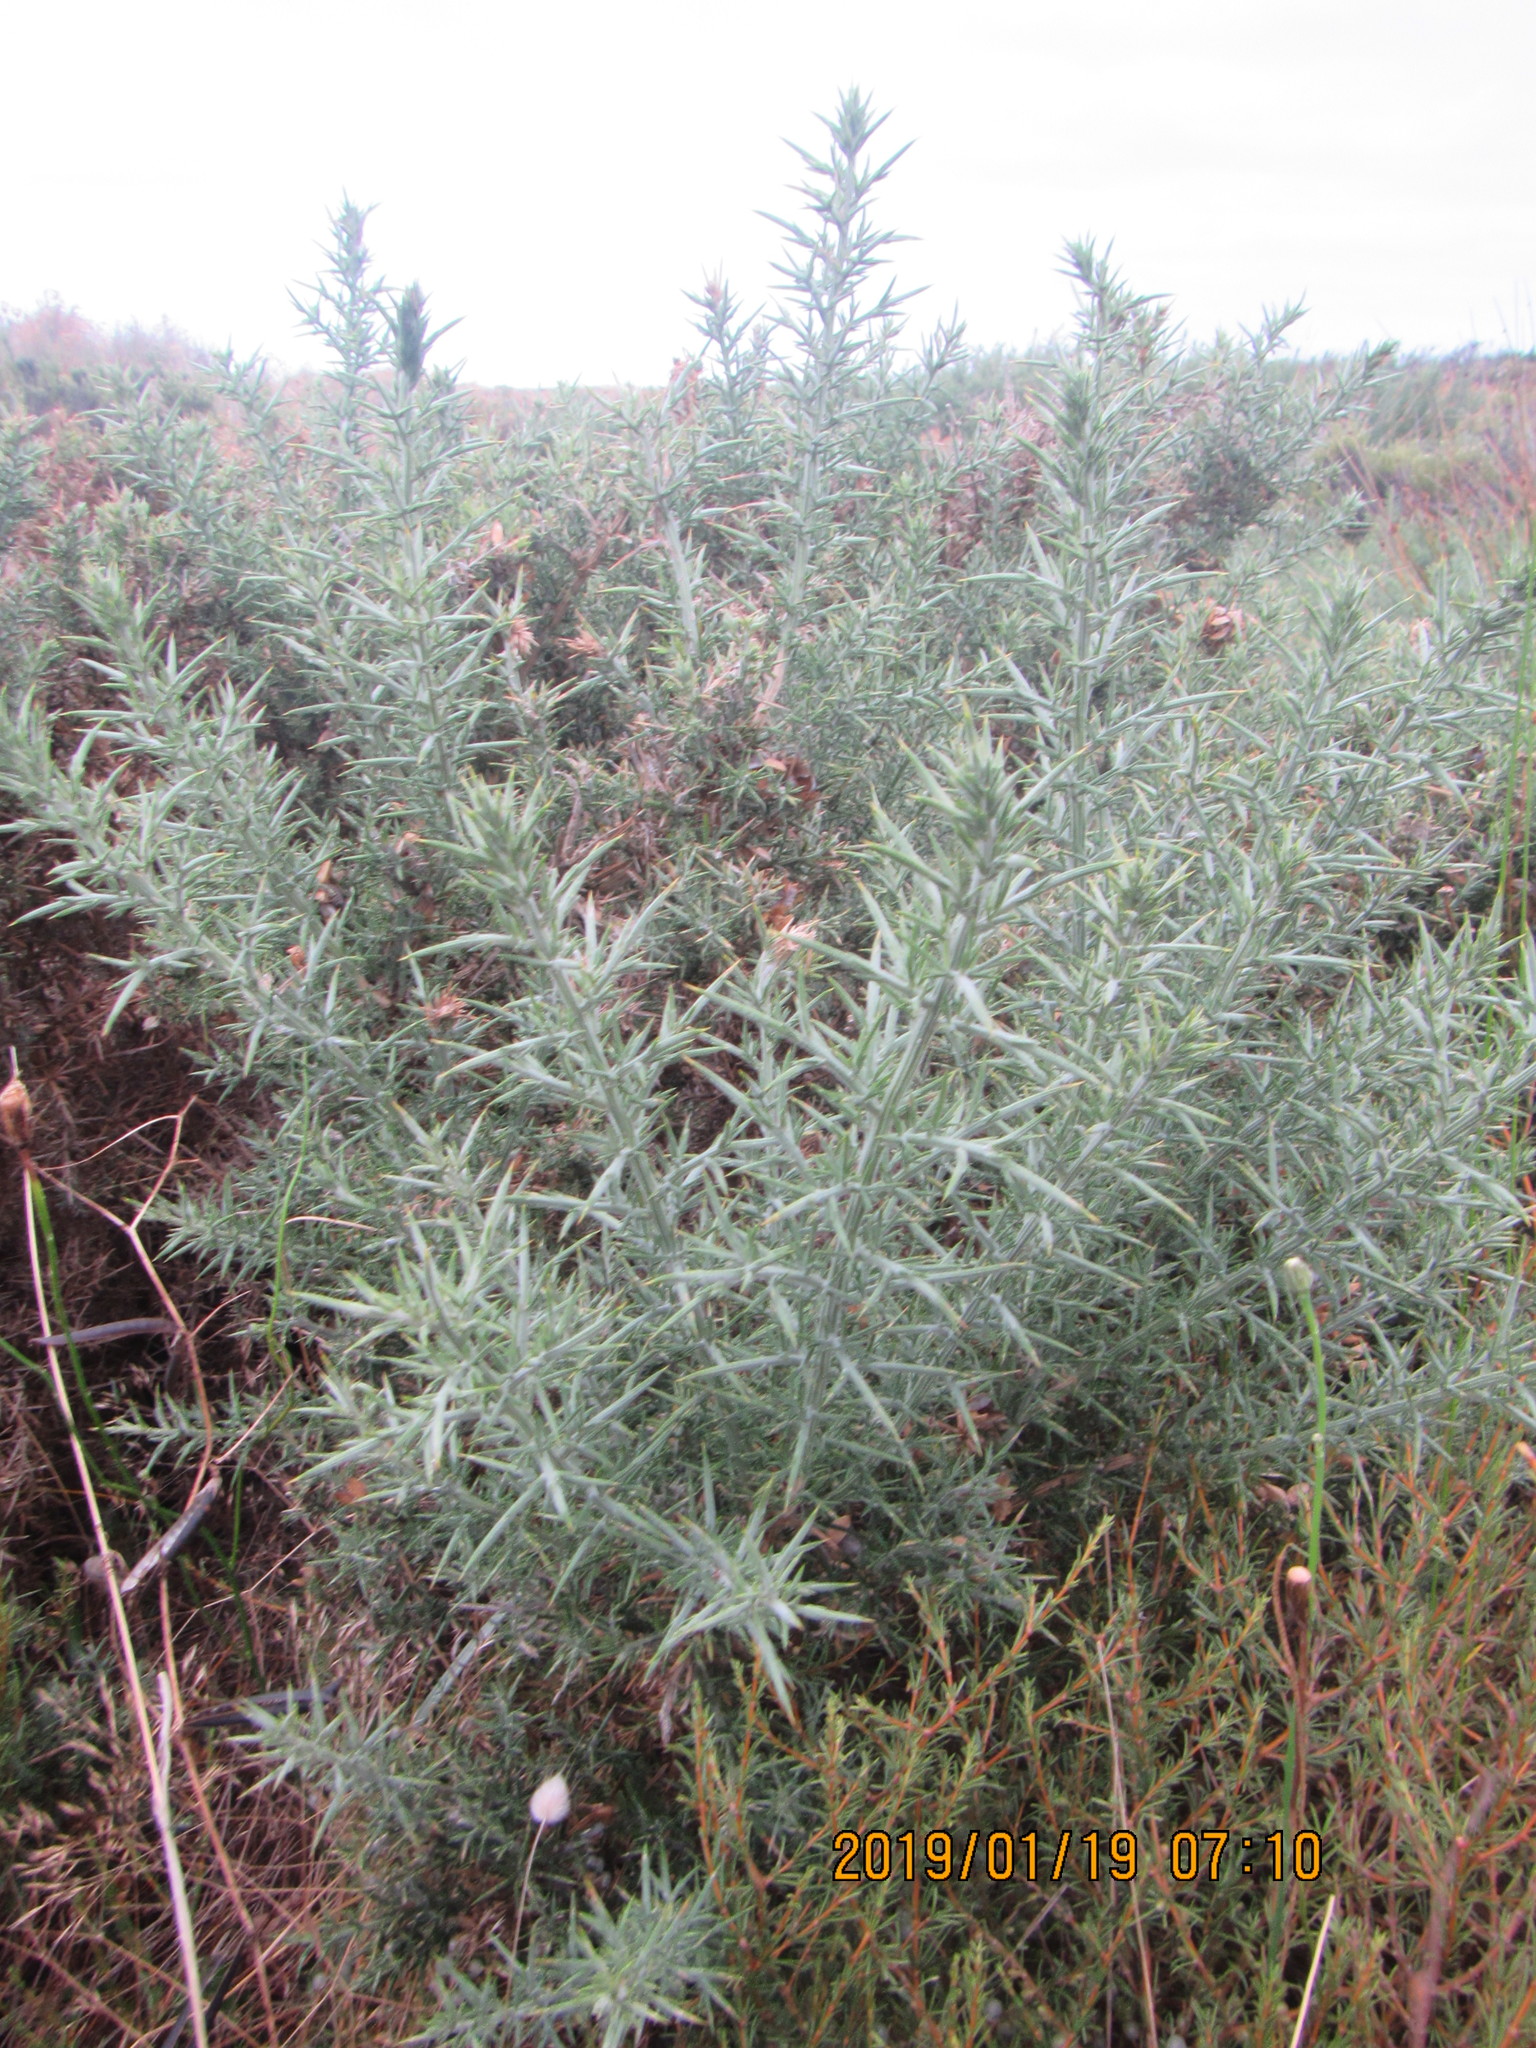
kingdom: Plantae
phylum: Tracheophyta
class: Magnoliopsida
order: Fabales
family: Fabaceae
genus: Ulex
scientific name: Ulex europaeus
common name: Common gorse
